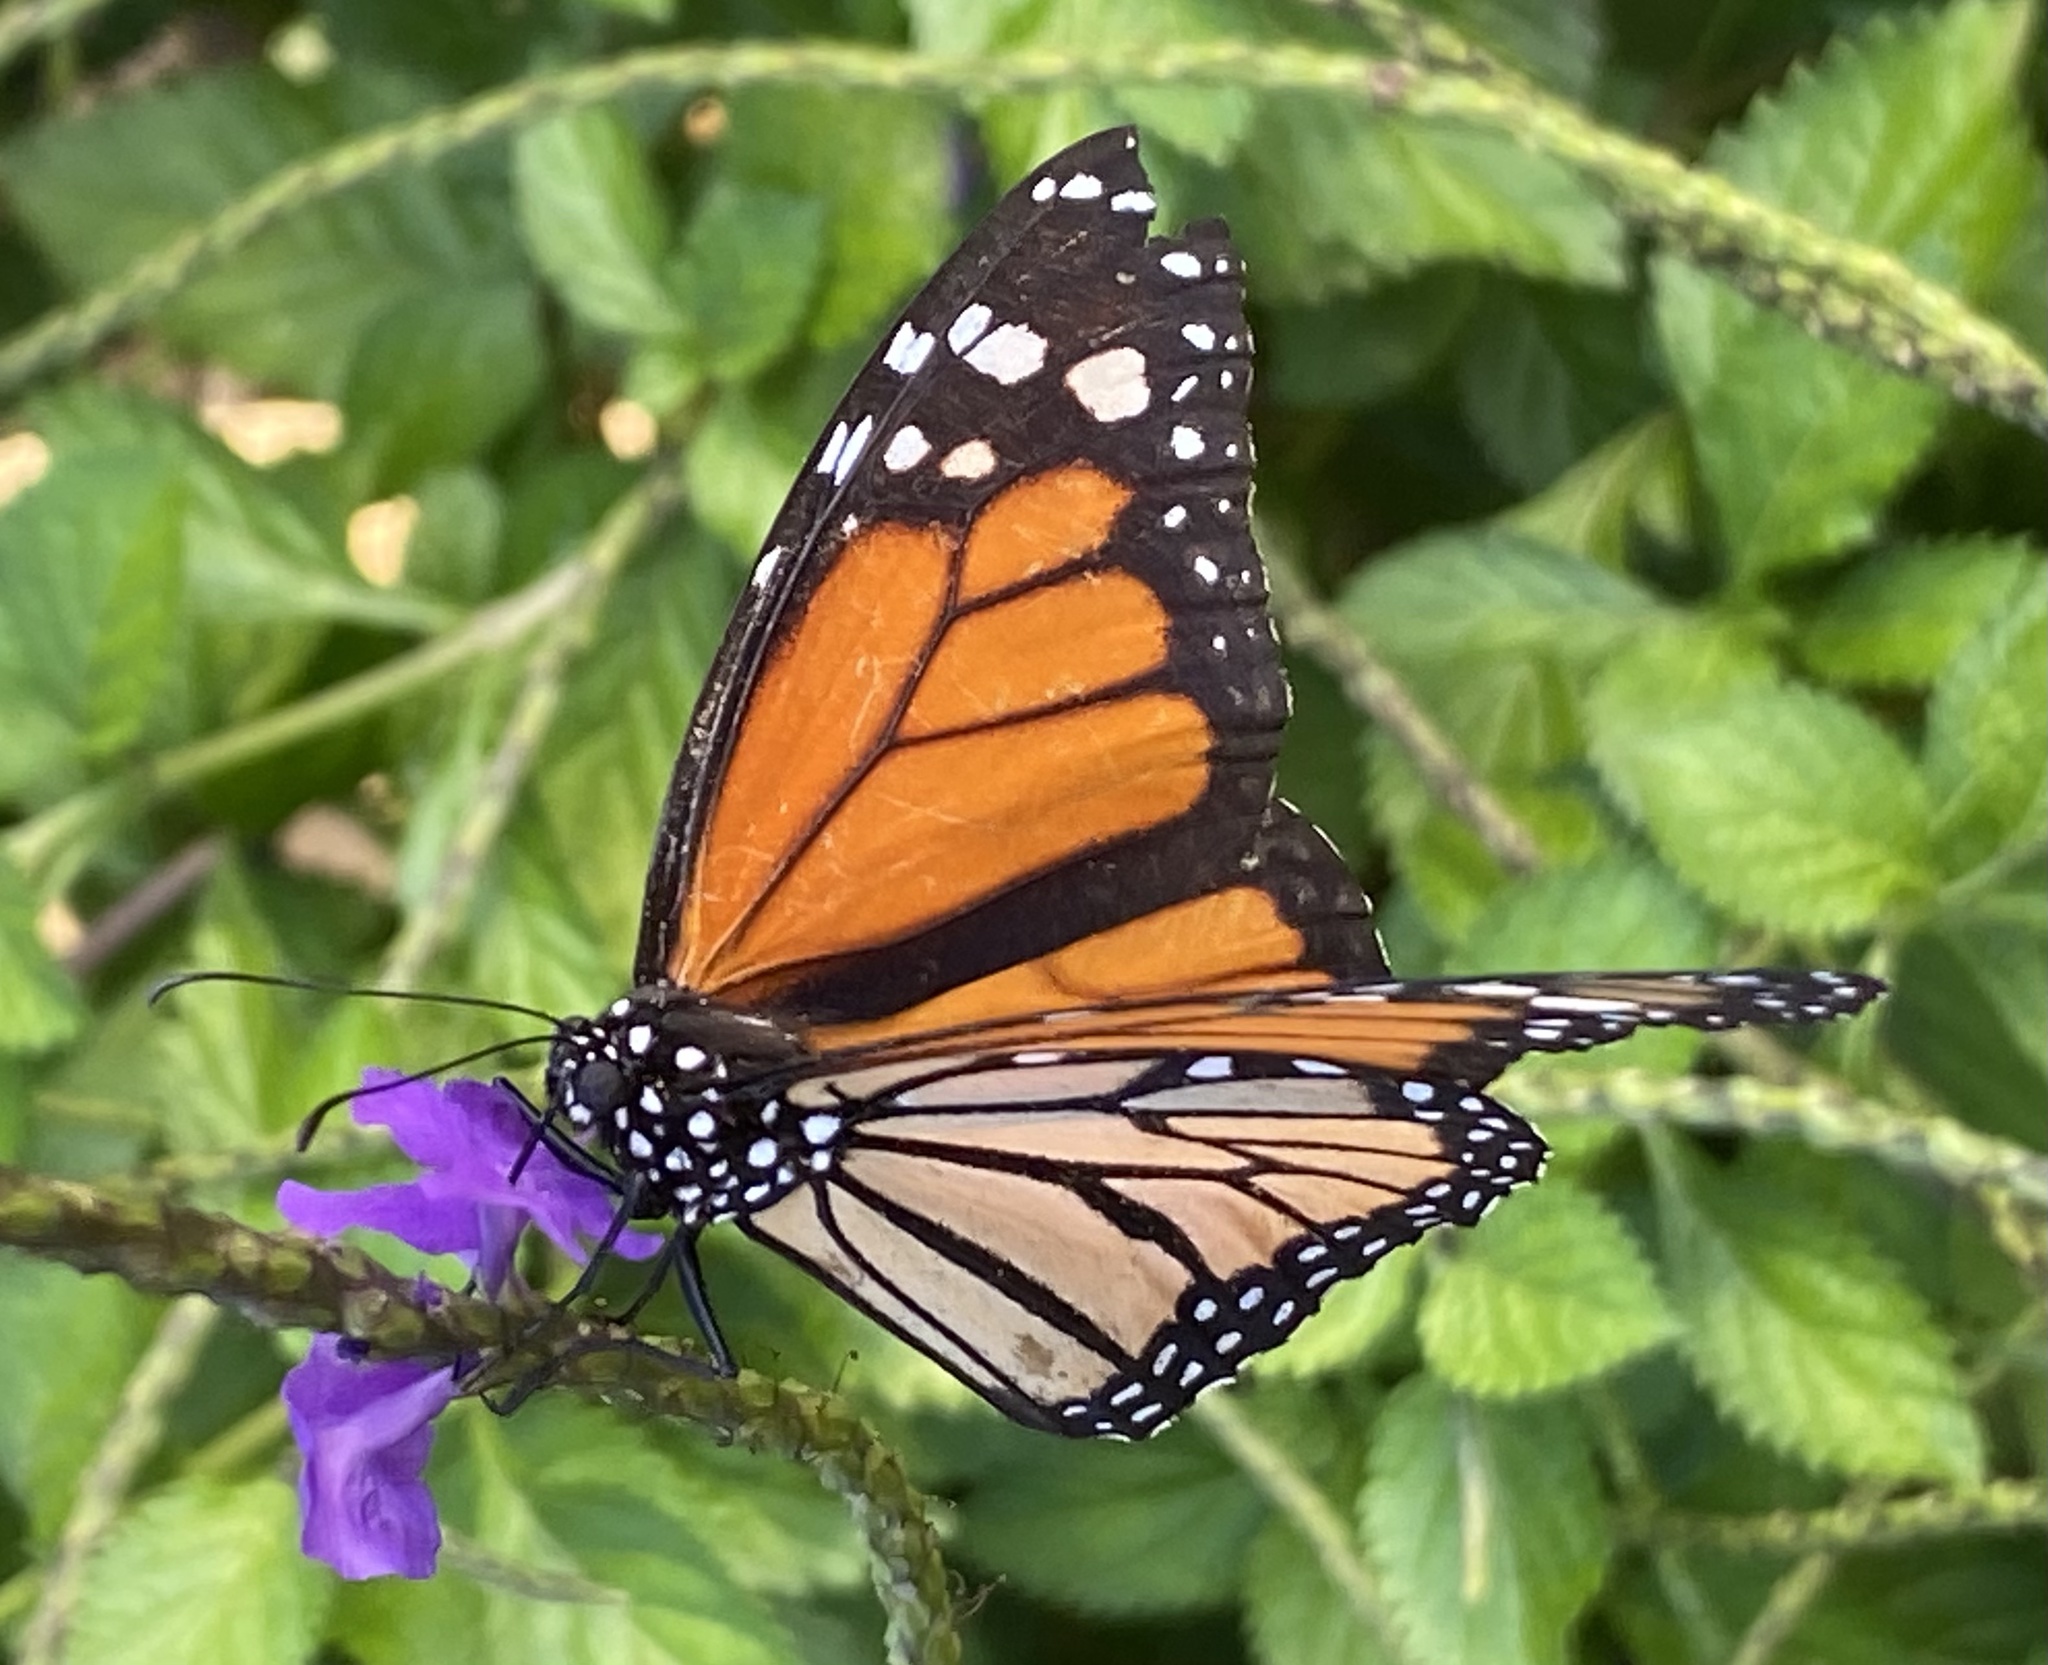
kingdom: Animalia
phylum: Arthropoda
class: Insecta
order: Lepidoptera
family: Nymphalidae
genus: Danaus
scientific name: Danaus plexippus
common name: Monarch
